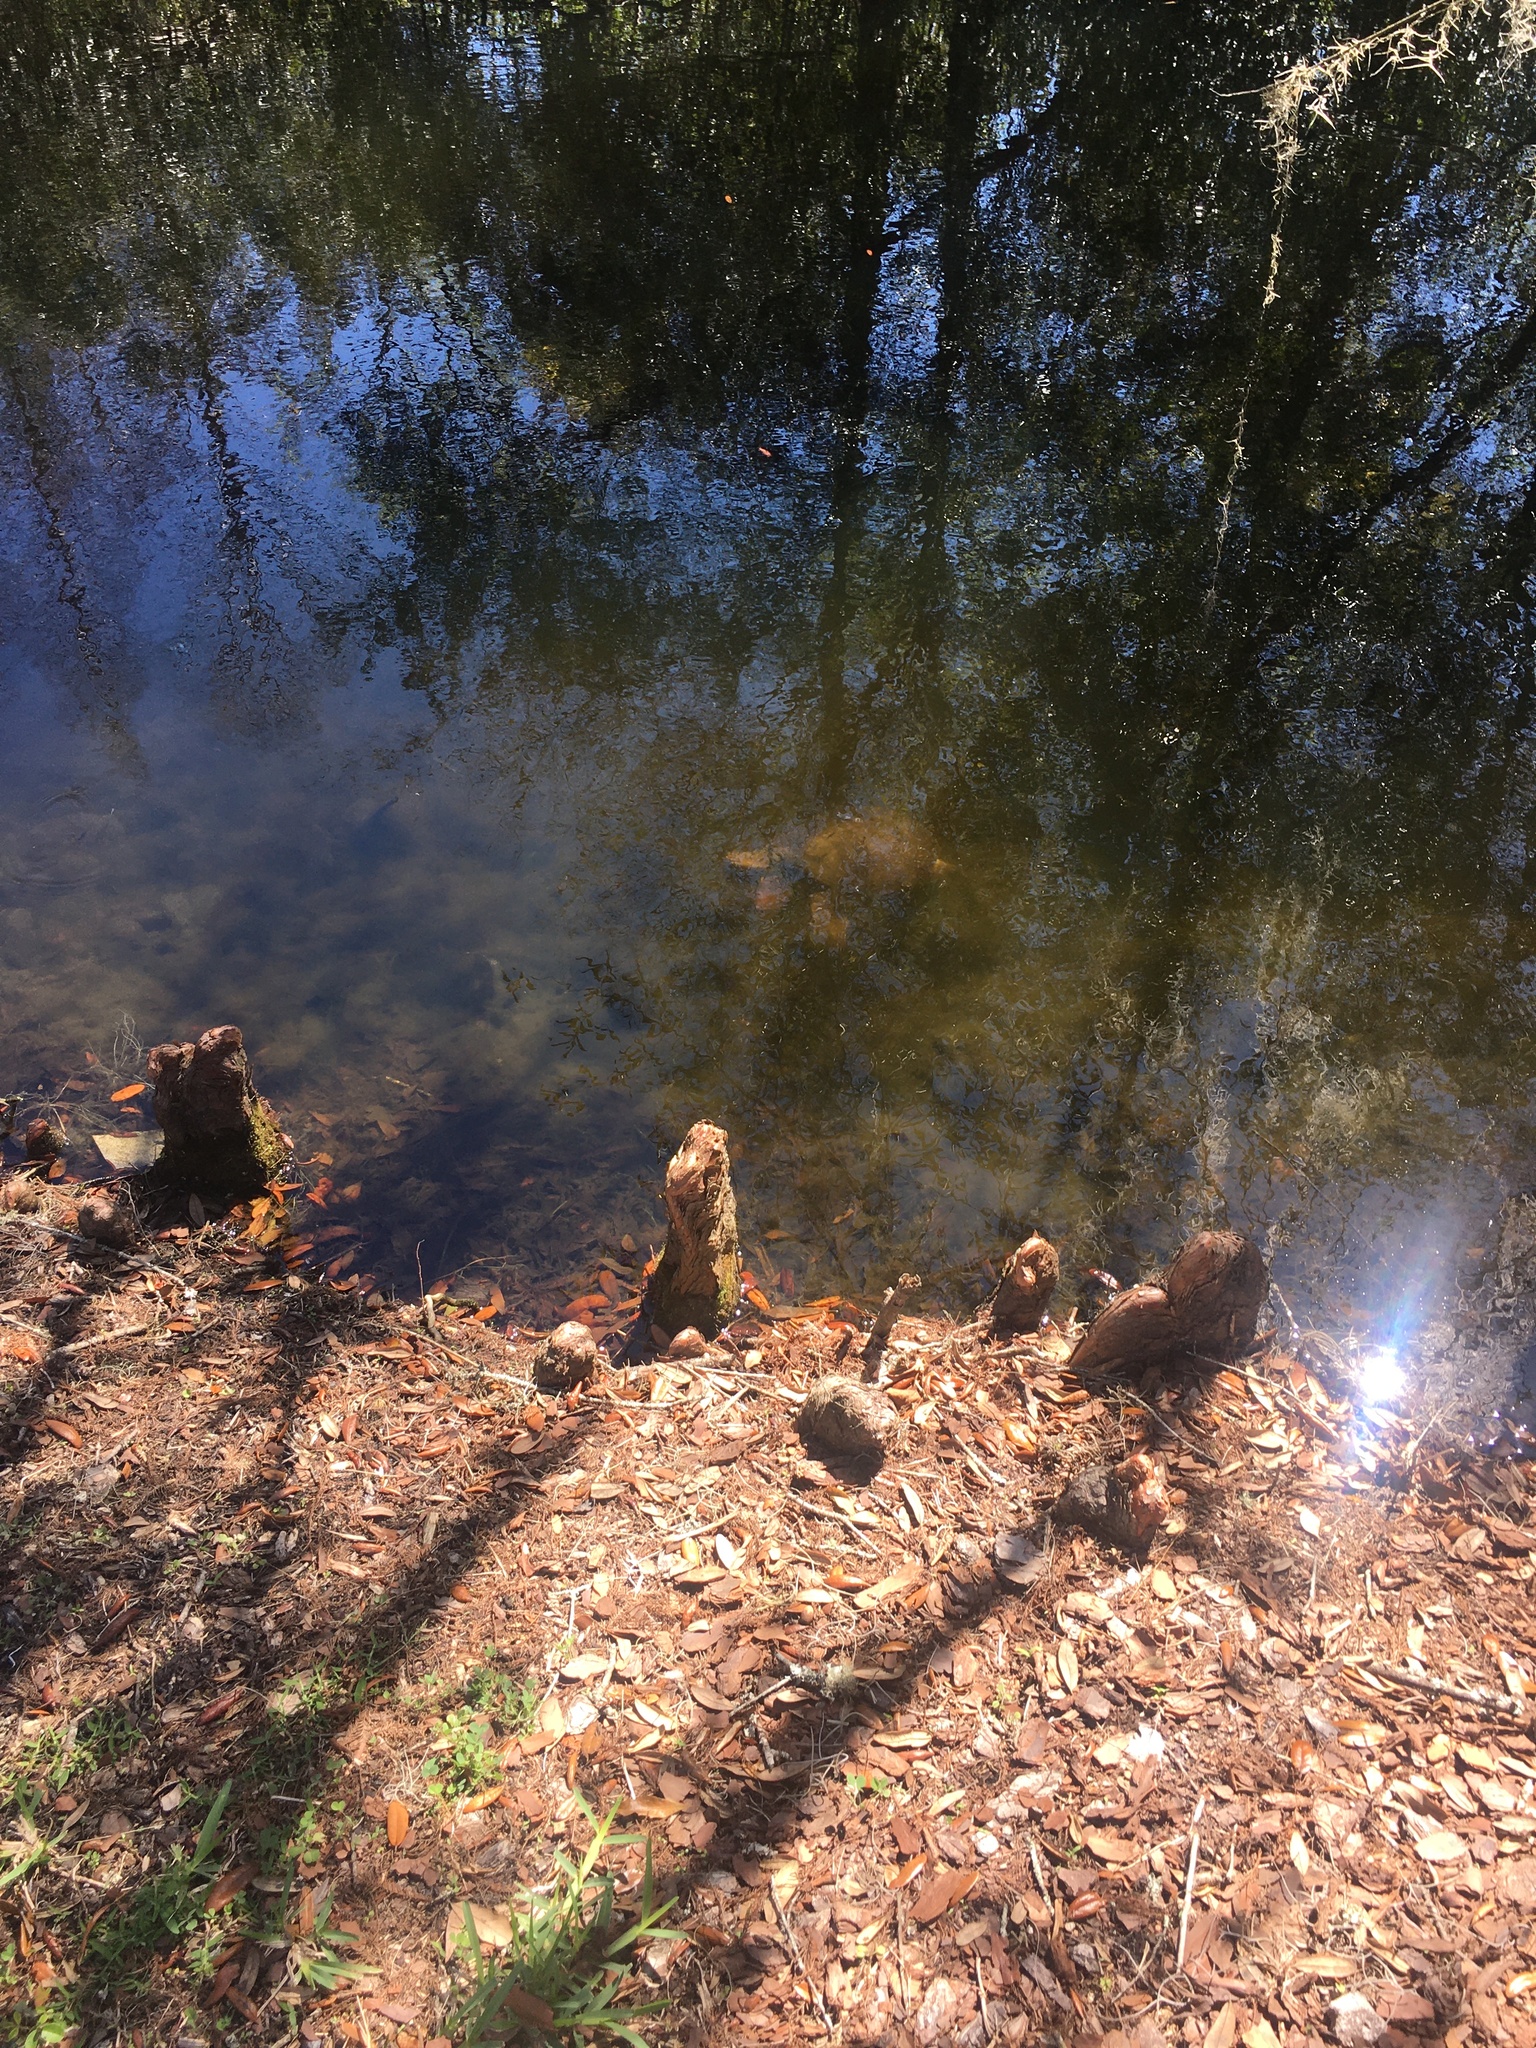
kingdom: Animalia
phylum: Chordata
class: Testudines
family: Trionychidae
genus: Apalone
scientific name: Apalone ferox
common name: Florida softshell turtle
